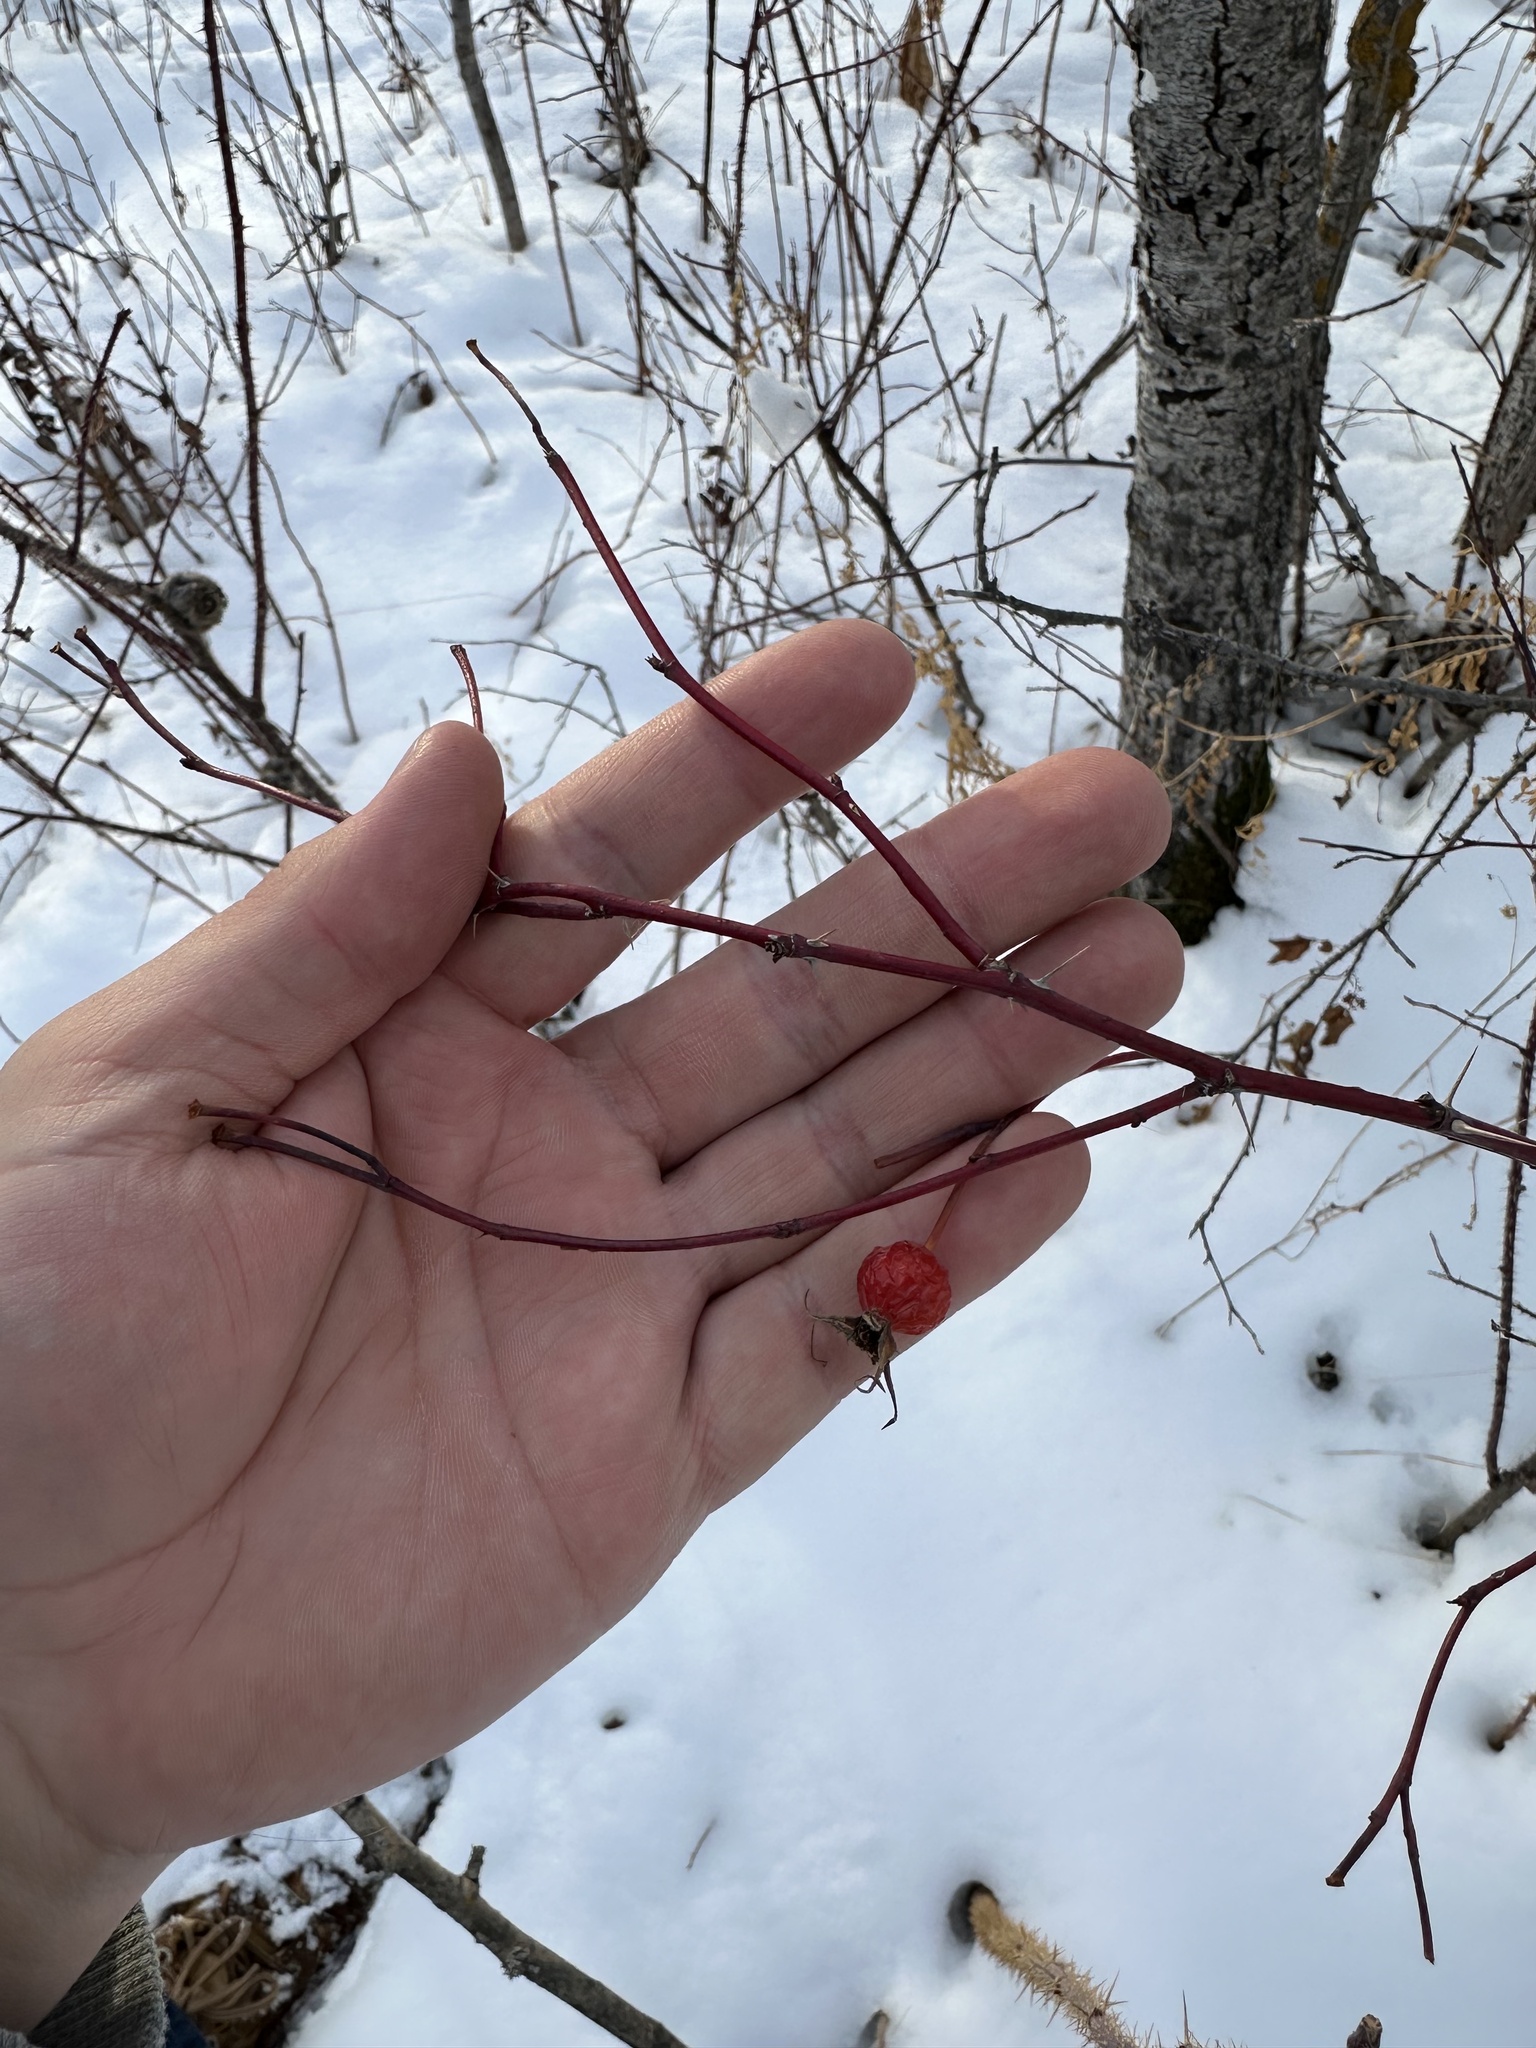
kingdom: Plantae
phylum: Tracheophyta
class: Magnoliopsida
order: Rosales
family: Rosaceae
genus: Rosa
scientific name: Rosa woodsii
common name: Woods's rose
